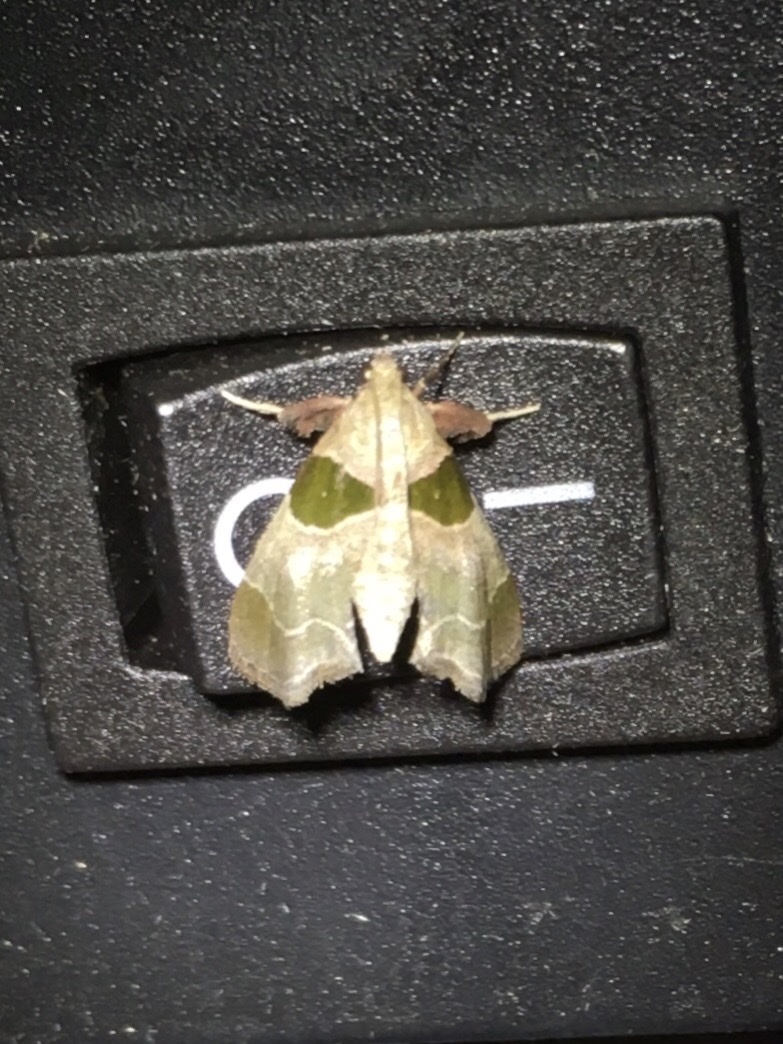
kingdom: Animalia
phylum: Arthropoda
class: Insecta
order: Lepidoptera
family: Pyralidae
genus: Tosale
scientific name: Tosale oviplagalis
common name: Dimorphic tosale moth
